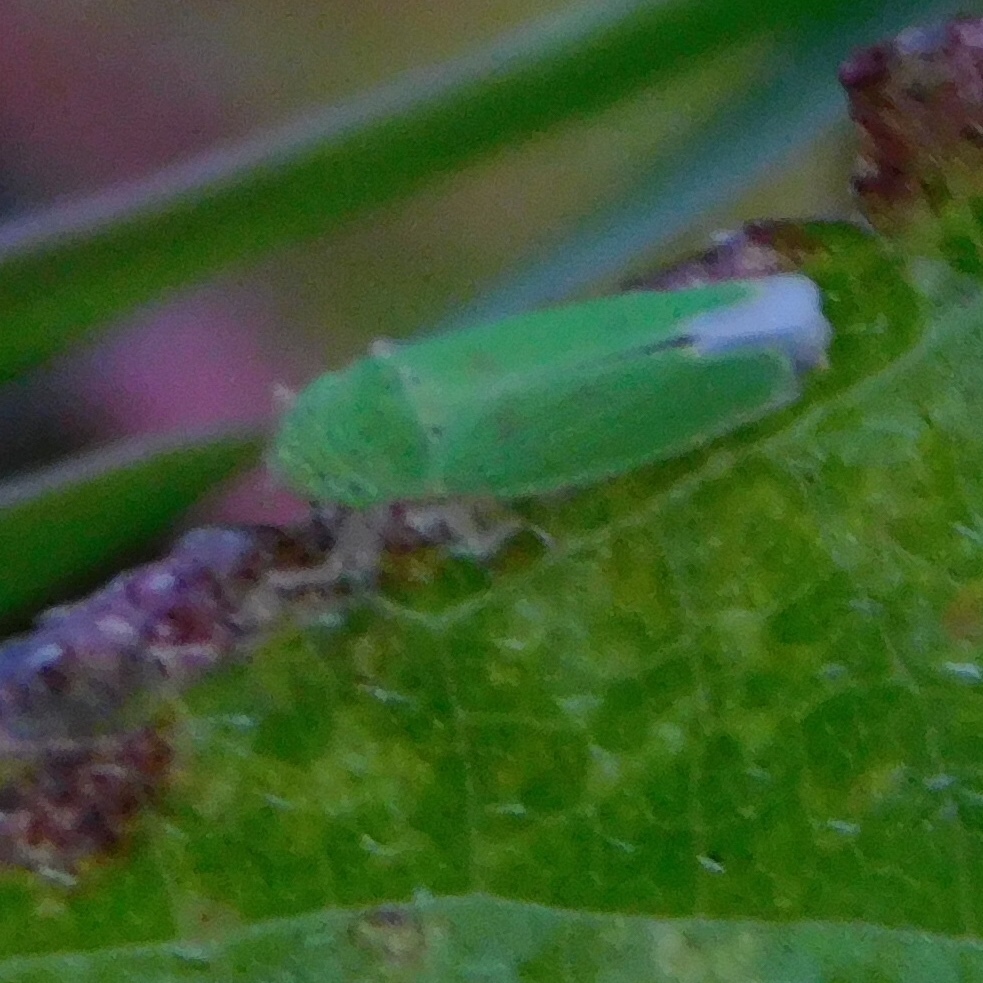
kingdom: Animalia
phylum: Arthropoda
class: Insecta
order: Hemiptera
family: Cicadellidae
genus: Hortensia
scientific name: Hortensia similis
